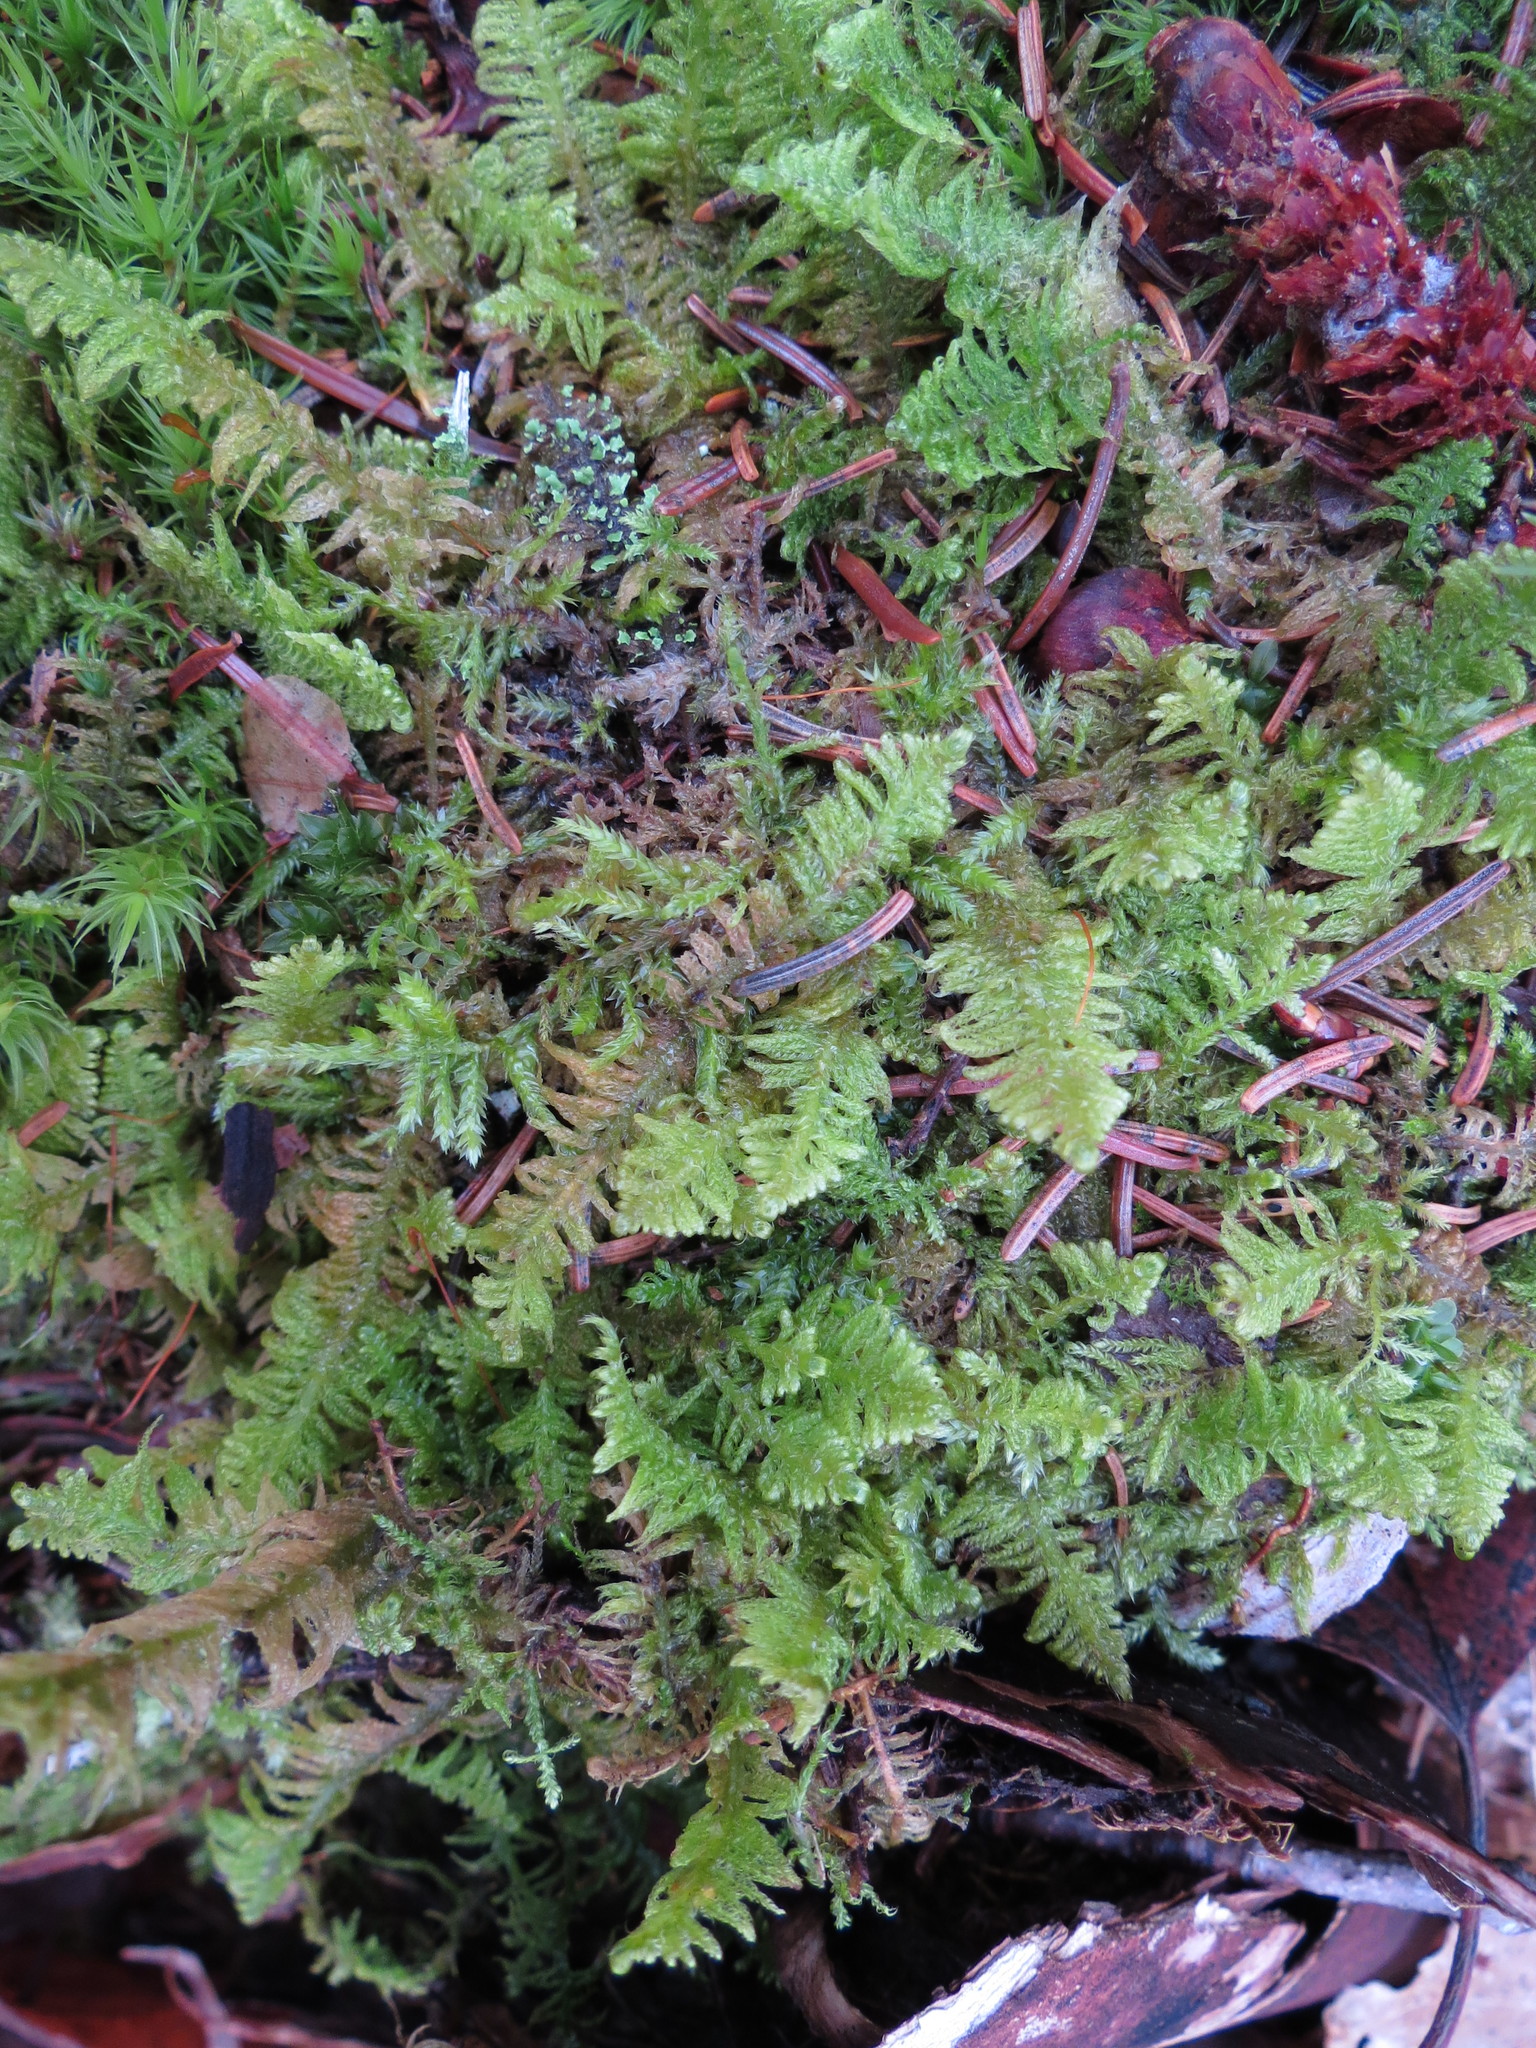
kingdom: Plantae
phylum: Bryophyta
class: Bryopsida
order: Hypnales
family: Pylaisiaceae
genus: Ptilium
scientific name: Ptilium crista-castrensis
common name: Knight's plume moss
